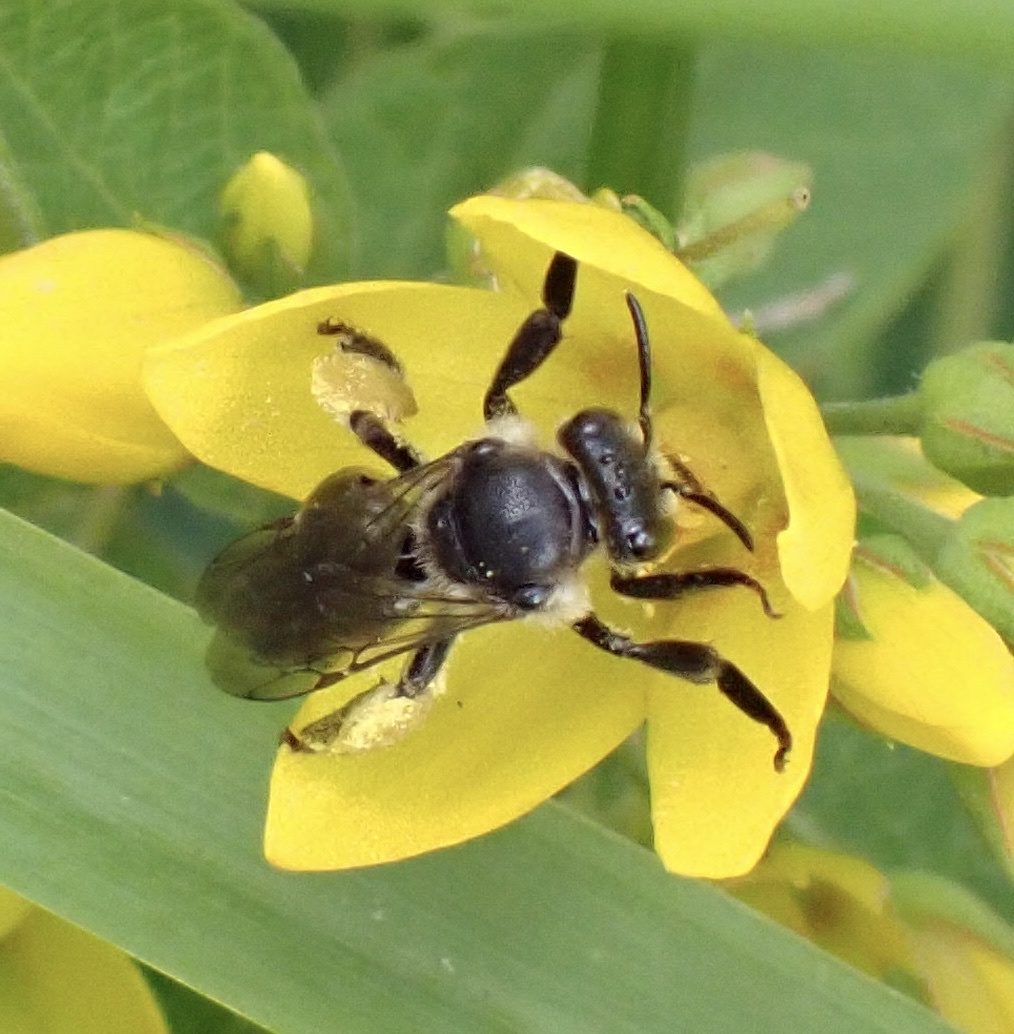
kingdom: Animalia
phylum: Arthropoda
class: Insecta
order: Hymenoptera
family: Melittidae
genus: Macropis
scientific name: Macropis europaea
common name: Yellow loosestrife bee
